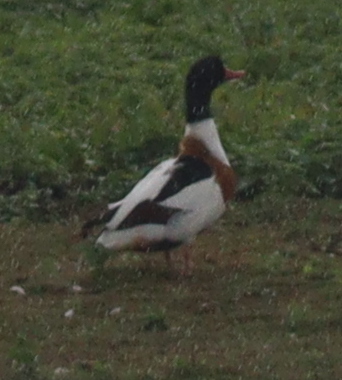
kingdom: Animalia
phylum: Chordata
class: Aves
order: Anseriformes
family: Anatidae
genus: Tadorna
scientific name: Tadorna tadorna
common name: Common shelduck
